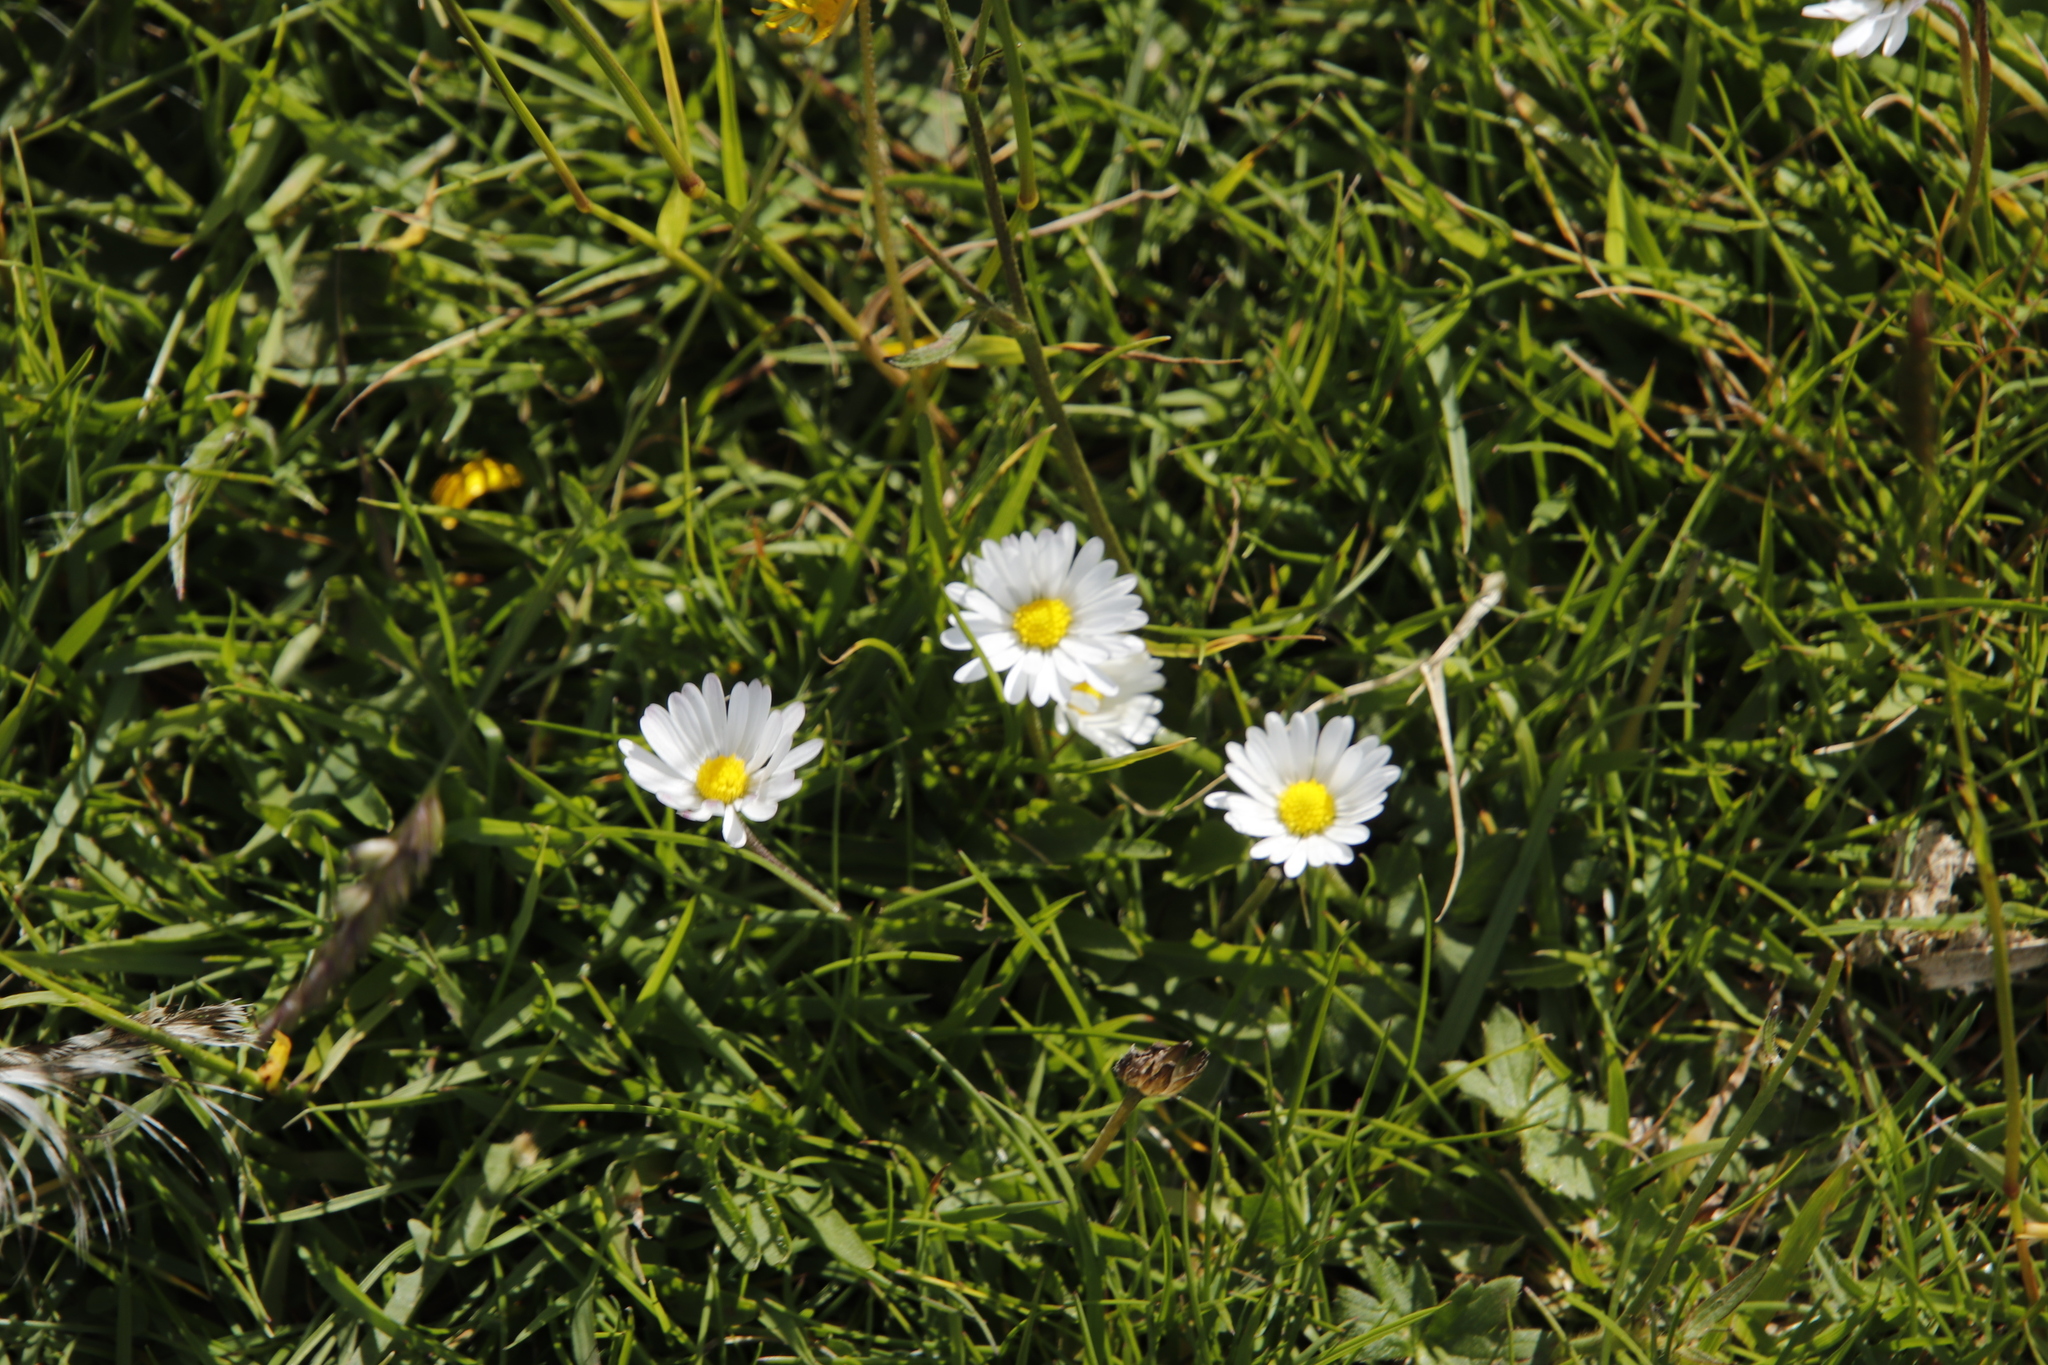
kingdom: Plantae
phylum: Tracheophyta
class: Magnoliopsida
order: Asterales
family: Asteraceae
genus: Bellis
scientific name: Bellis perennis
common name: Lawndaisy
